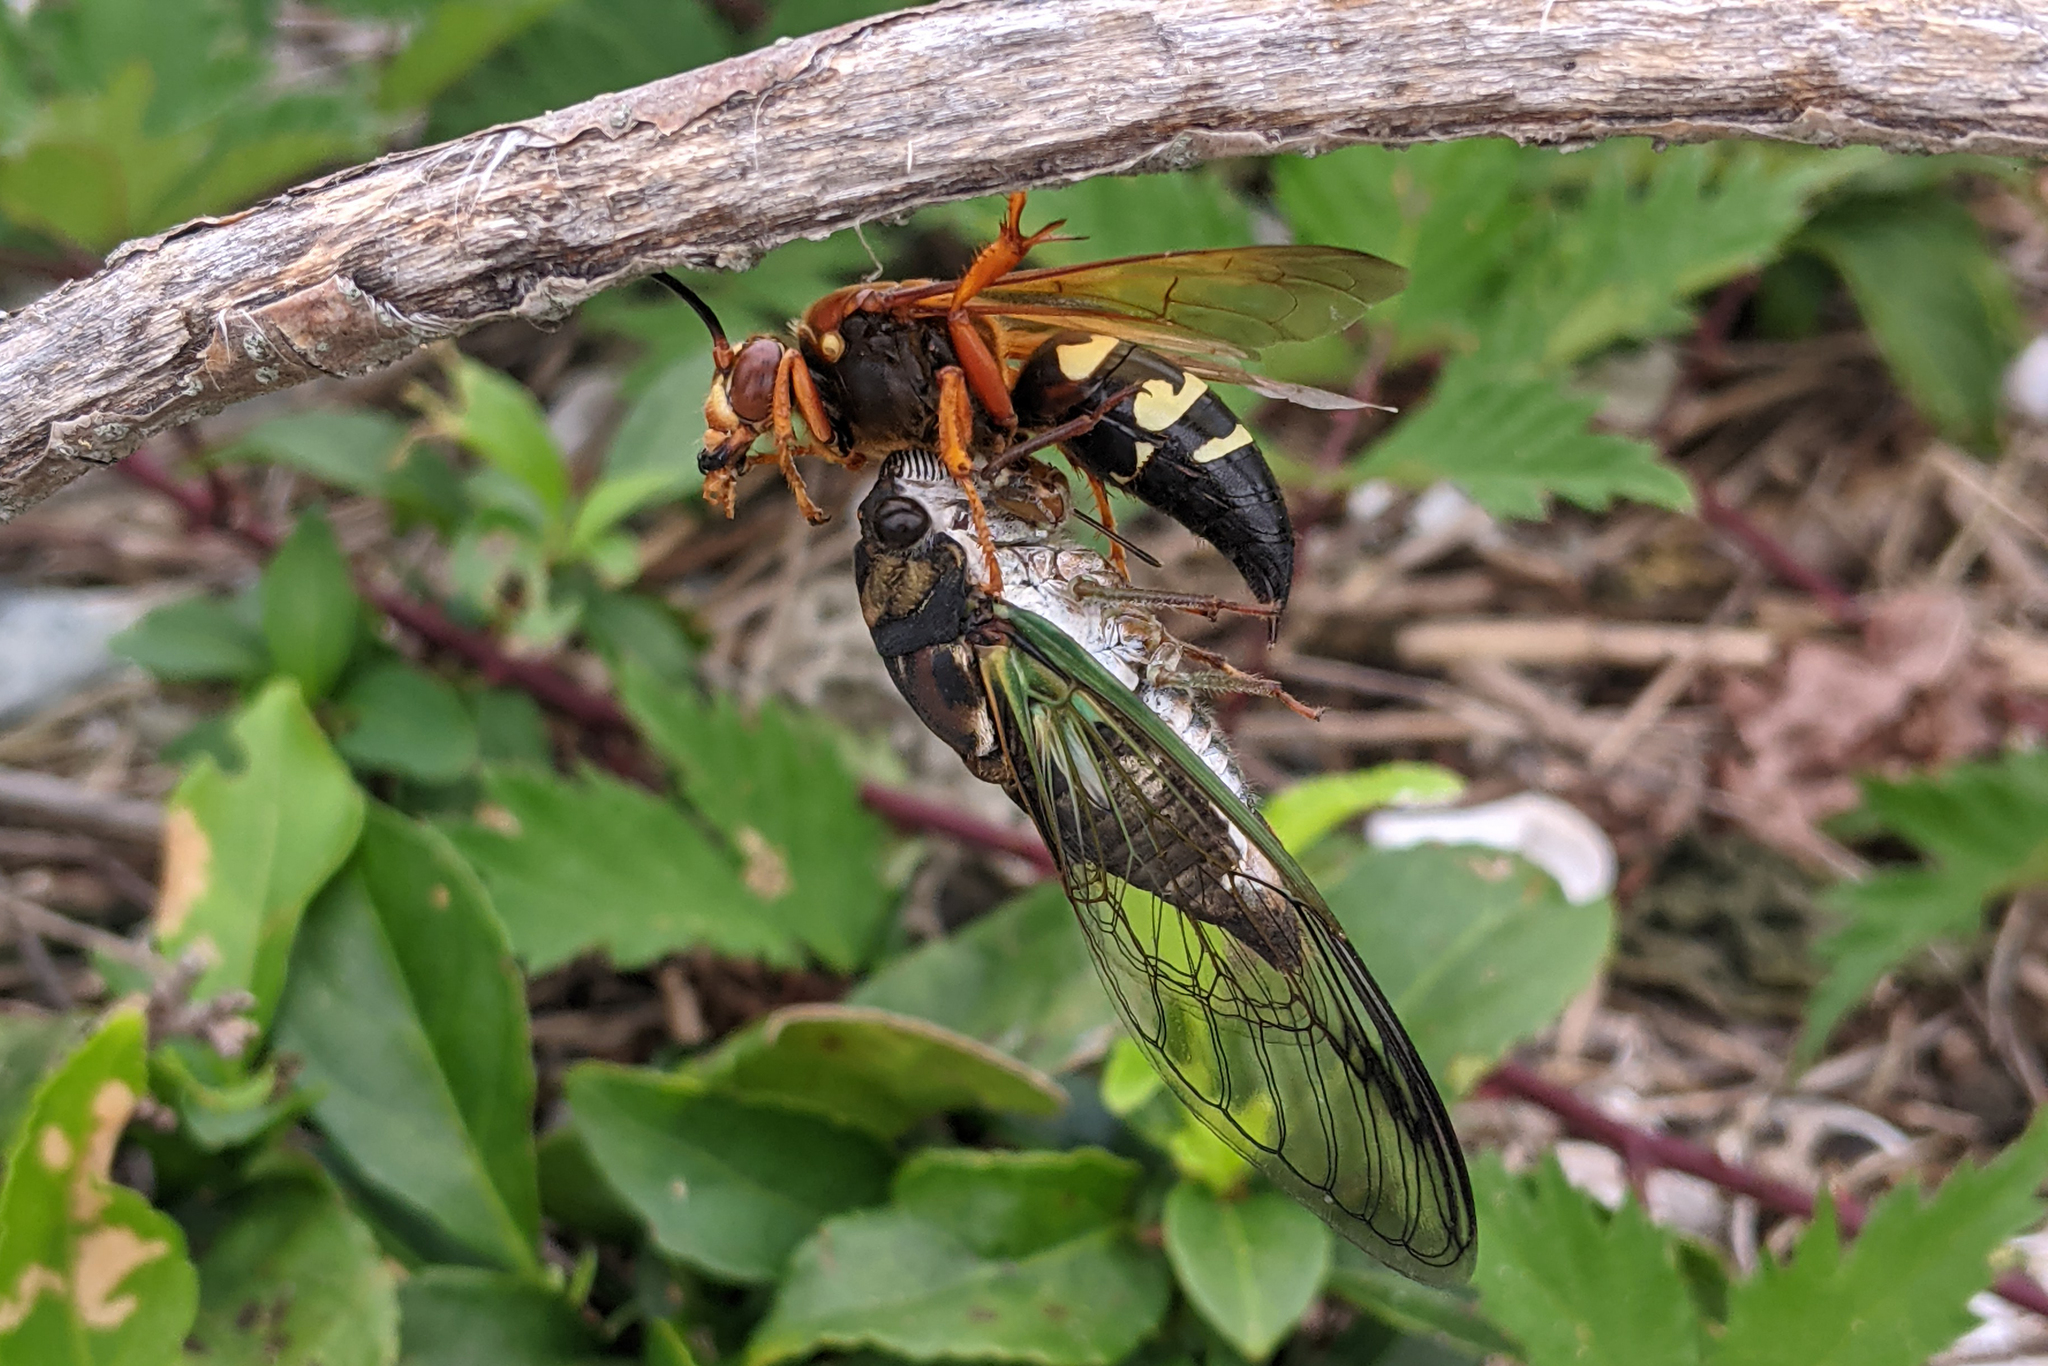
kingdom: Animalia
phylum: Arthropoda
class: Insecta
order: Hemiptera
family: Cicadidae
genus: Neotibicen
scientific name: Neotibicen lyricen
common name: Lyric cicada
